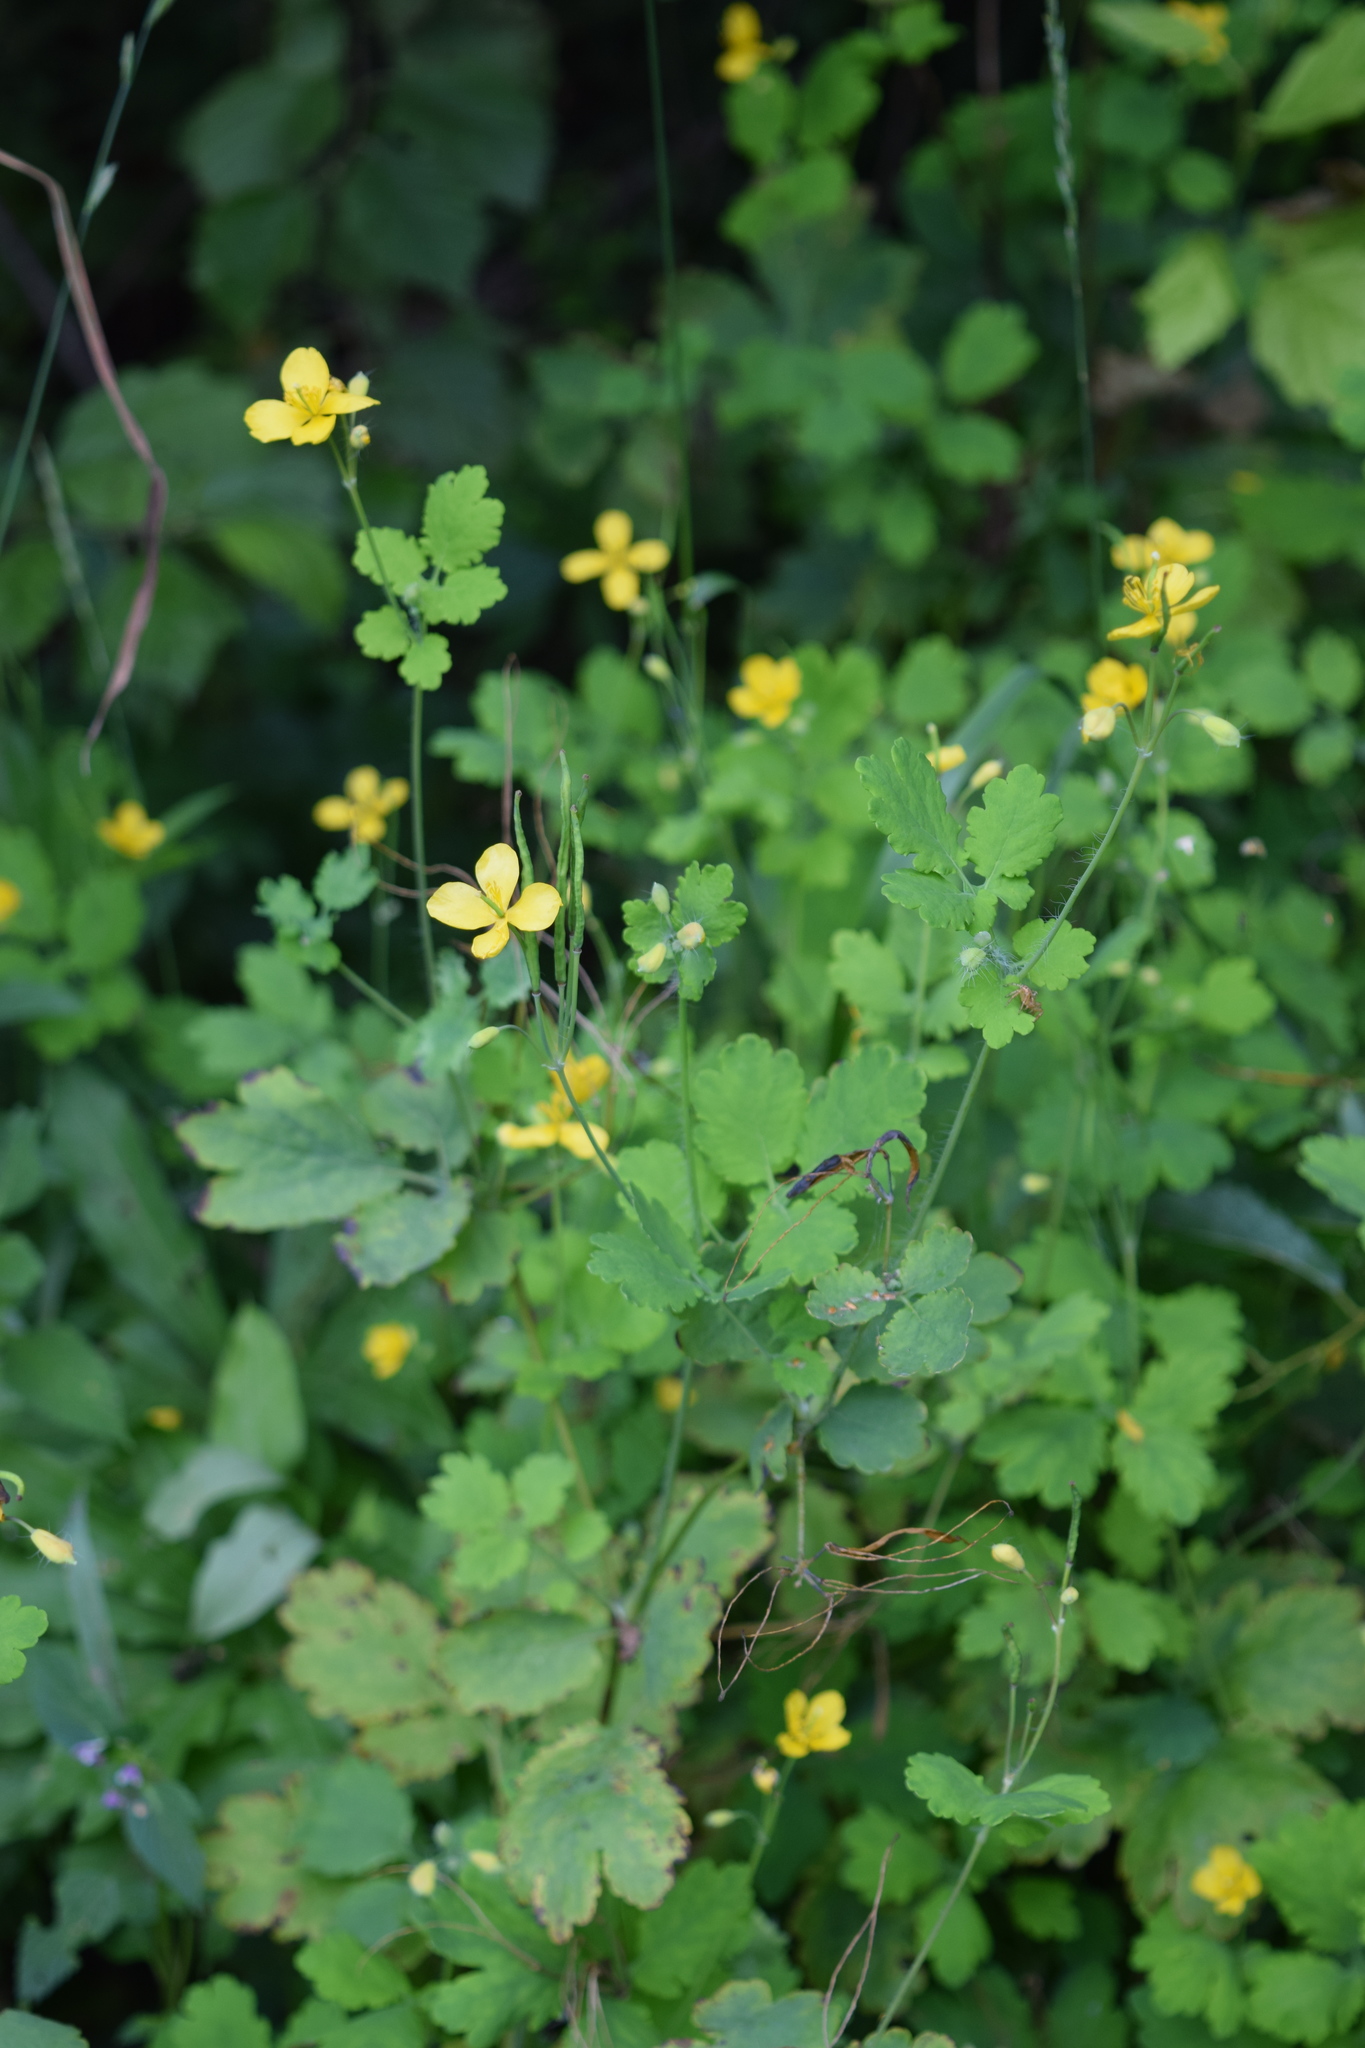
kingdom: Plantae
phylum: Tracheophyta
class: Magnoliopsida
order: Ranunculales
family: Papaveraceae
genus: Chelidonium
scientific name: Chelidonium majus
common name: Greater celandine
